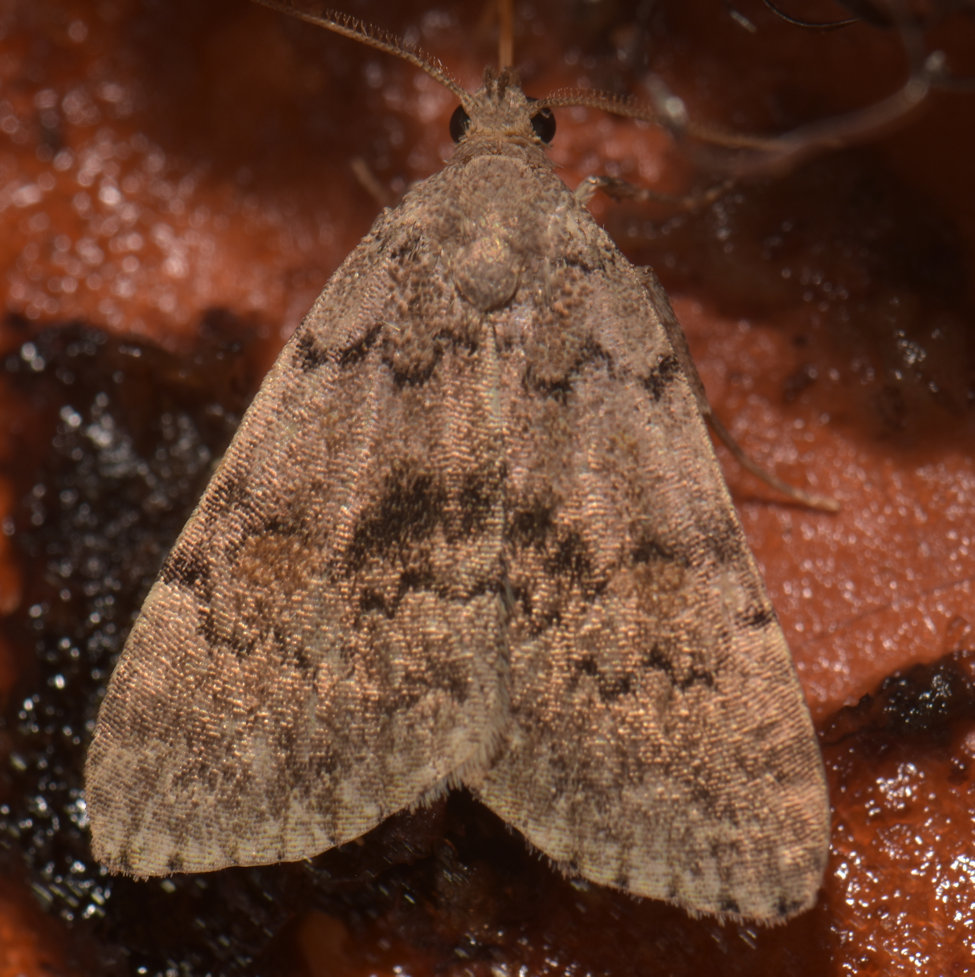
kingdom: Animalia
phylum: Arthropoda
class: Insecta
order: Lepidoptera
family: Erebidae
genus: Idia
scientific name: Idia aemula
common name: Common idia moth
